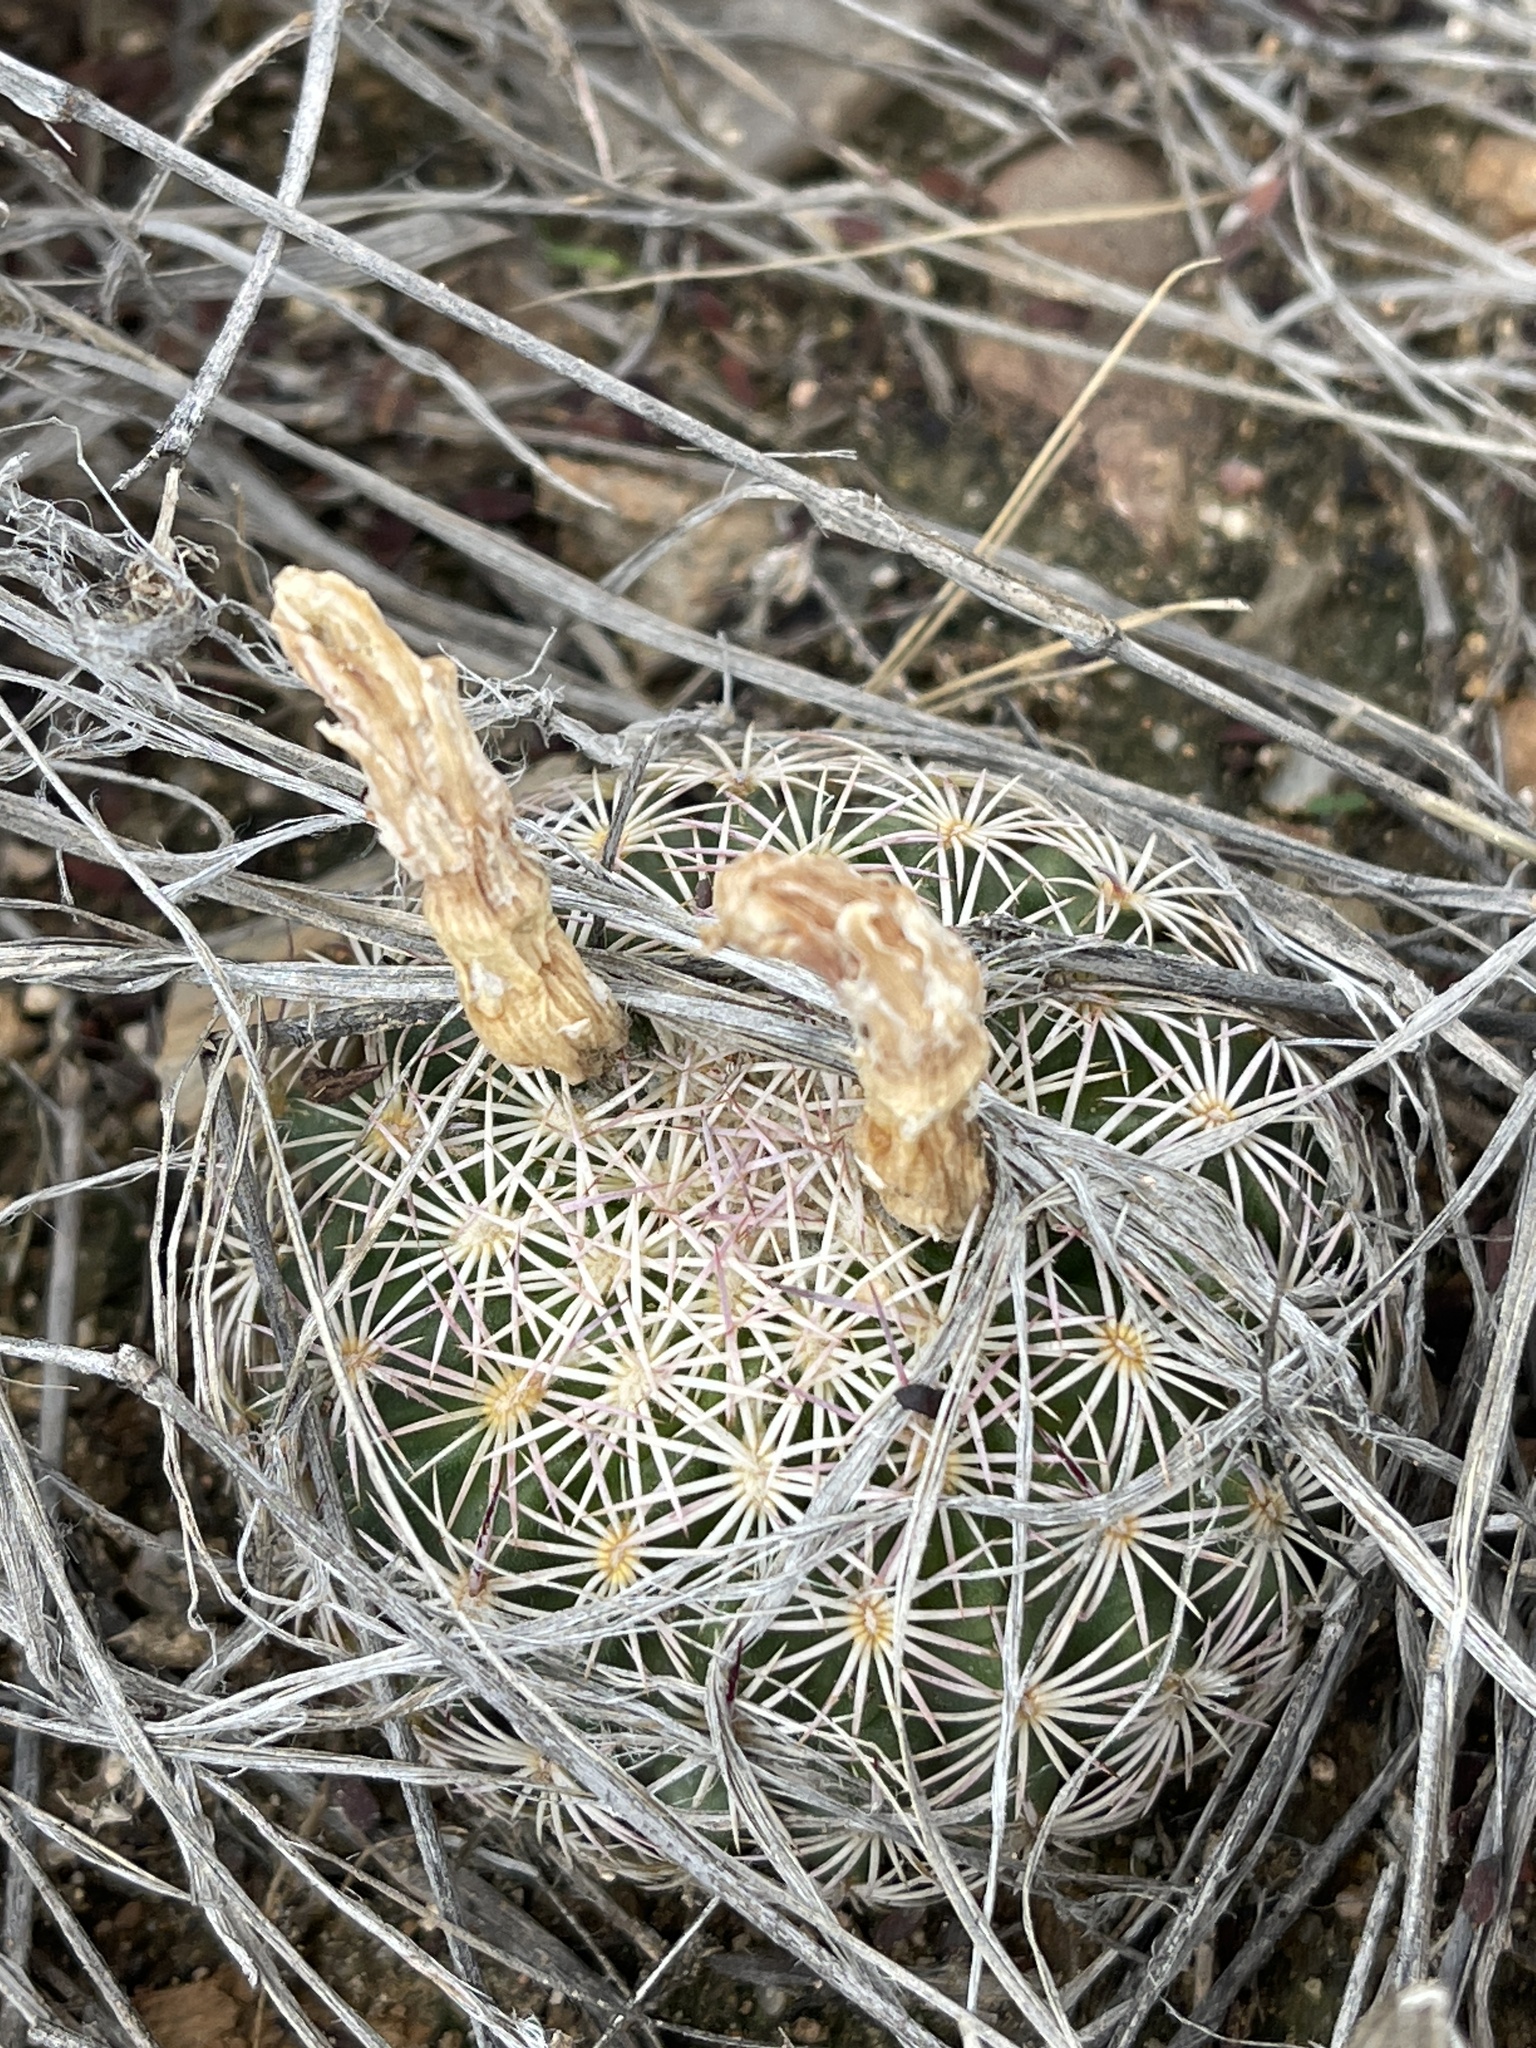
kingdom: Plantae
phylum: Tracheophyta
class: Magnoliopsida
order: Caryophyllales
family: Cactaceae
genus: Sclerocactus
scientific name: Sclerocactus johnsonii
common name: Eight-spine fishhook cactus
